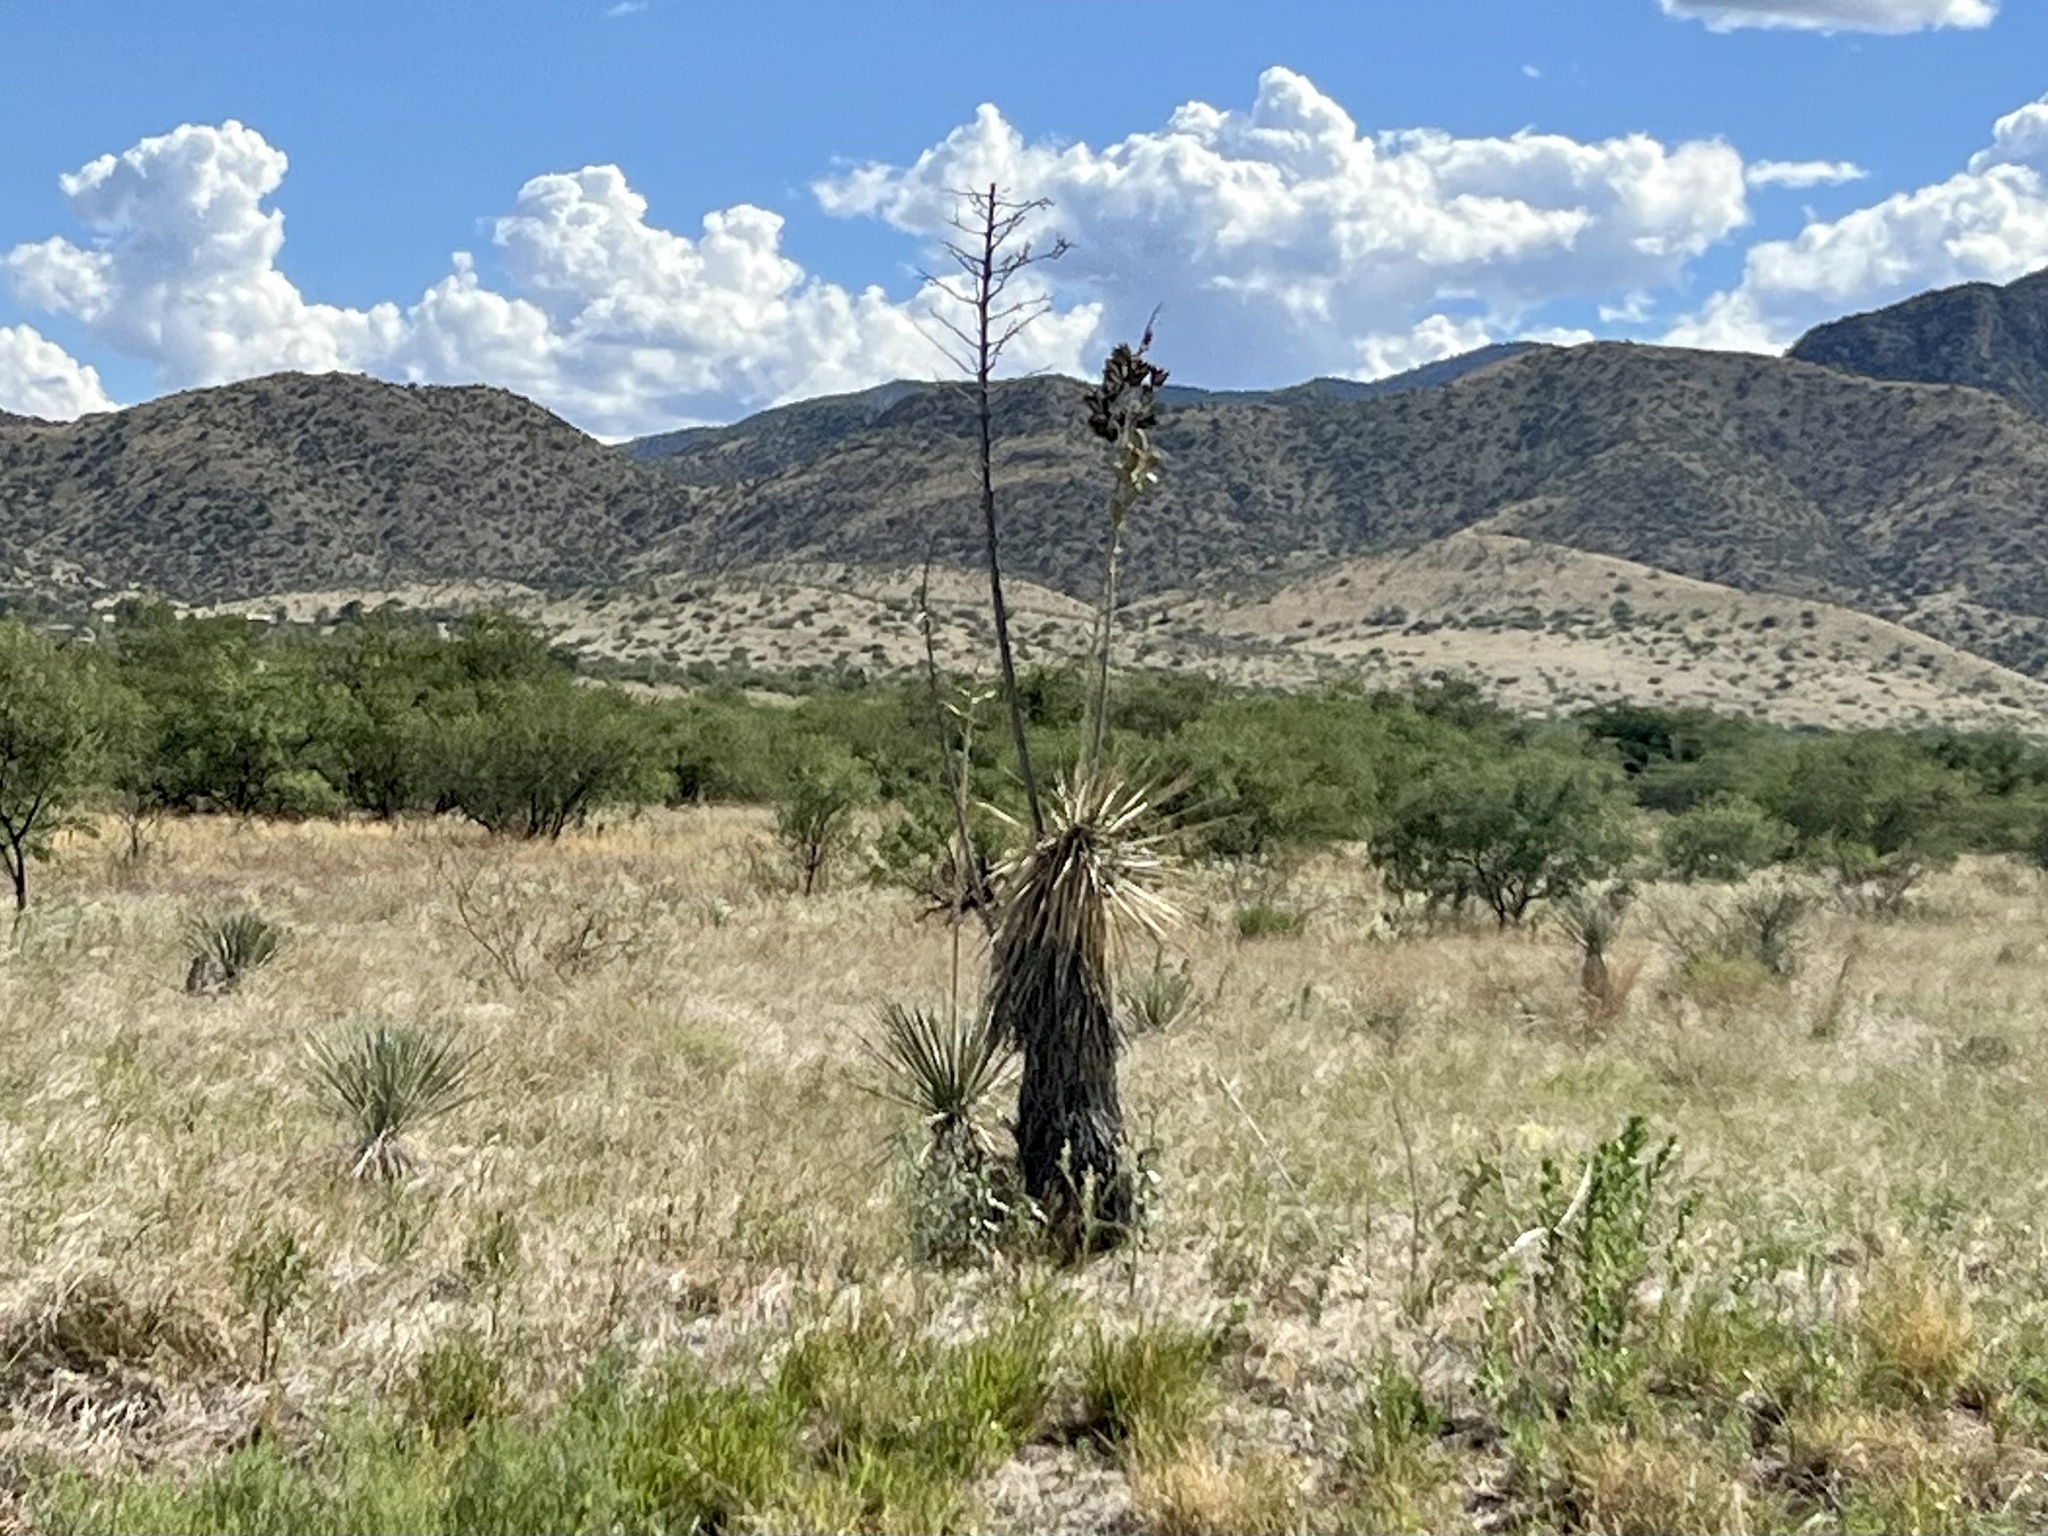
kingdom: Plantae
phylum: Tracheophyta
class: Liliopsida
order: Asparagales
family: Asparagaceae
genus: Yucca
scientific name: Yucca elata
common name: Palmella
